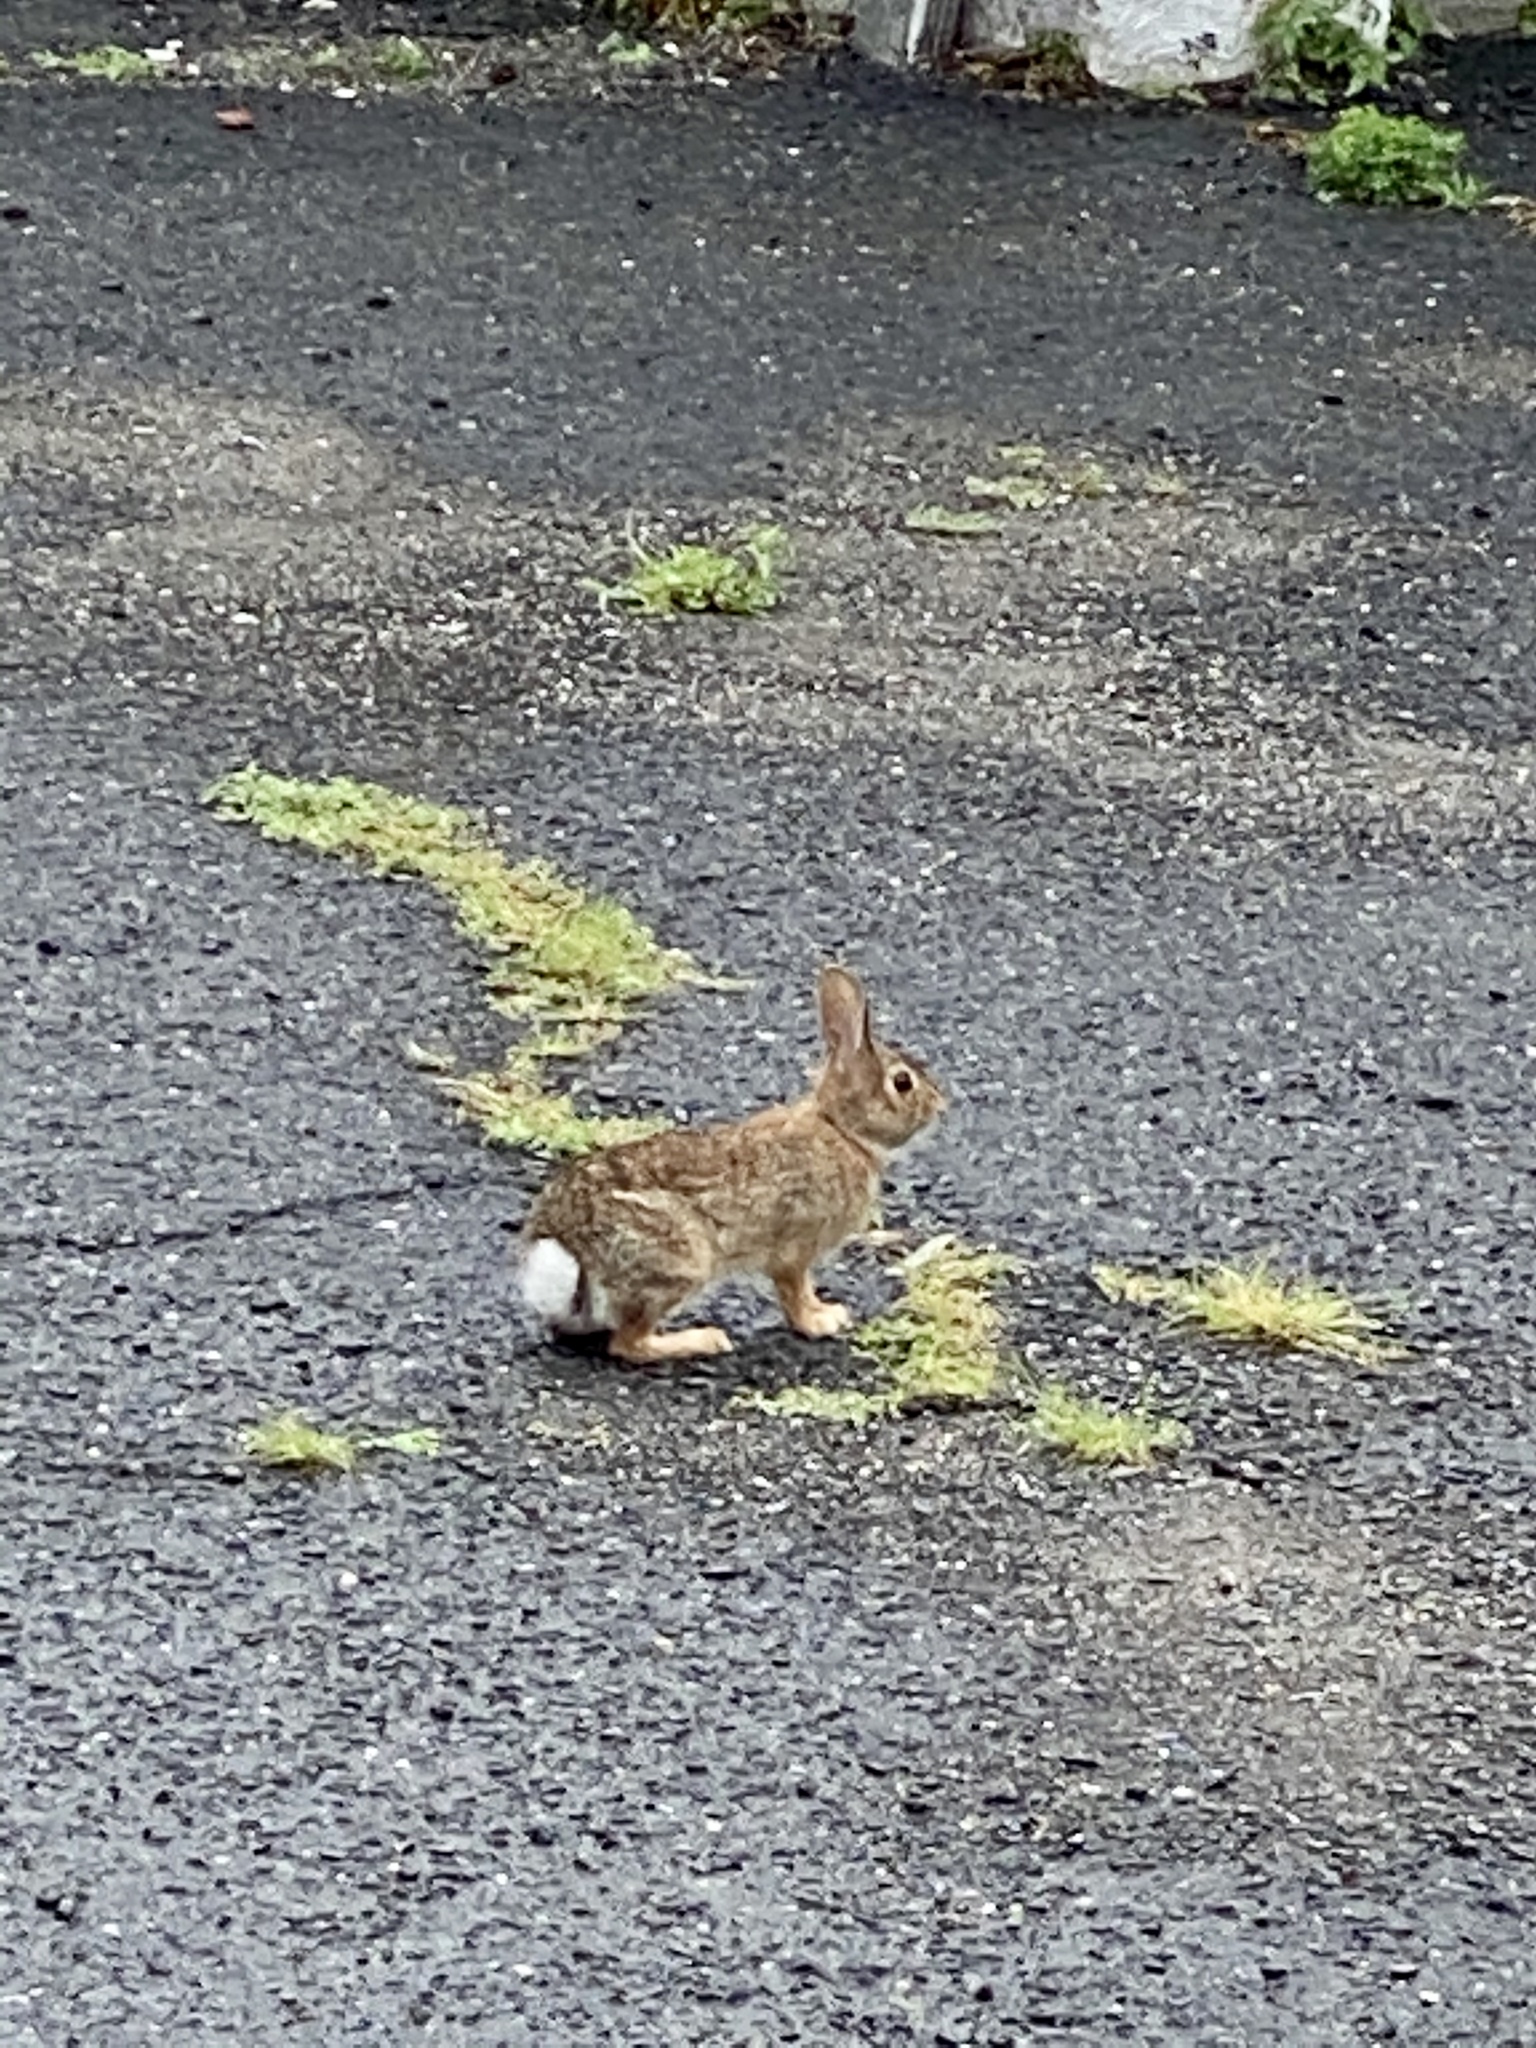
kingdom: Animalia
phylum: Chordata
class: Mammalia
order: Lagomorpha
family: Leporidae
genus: Sylvilagus
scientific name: Sylvilagus floridanus
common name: Eastern cottontail
